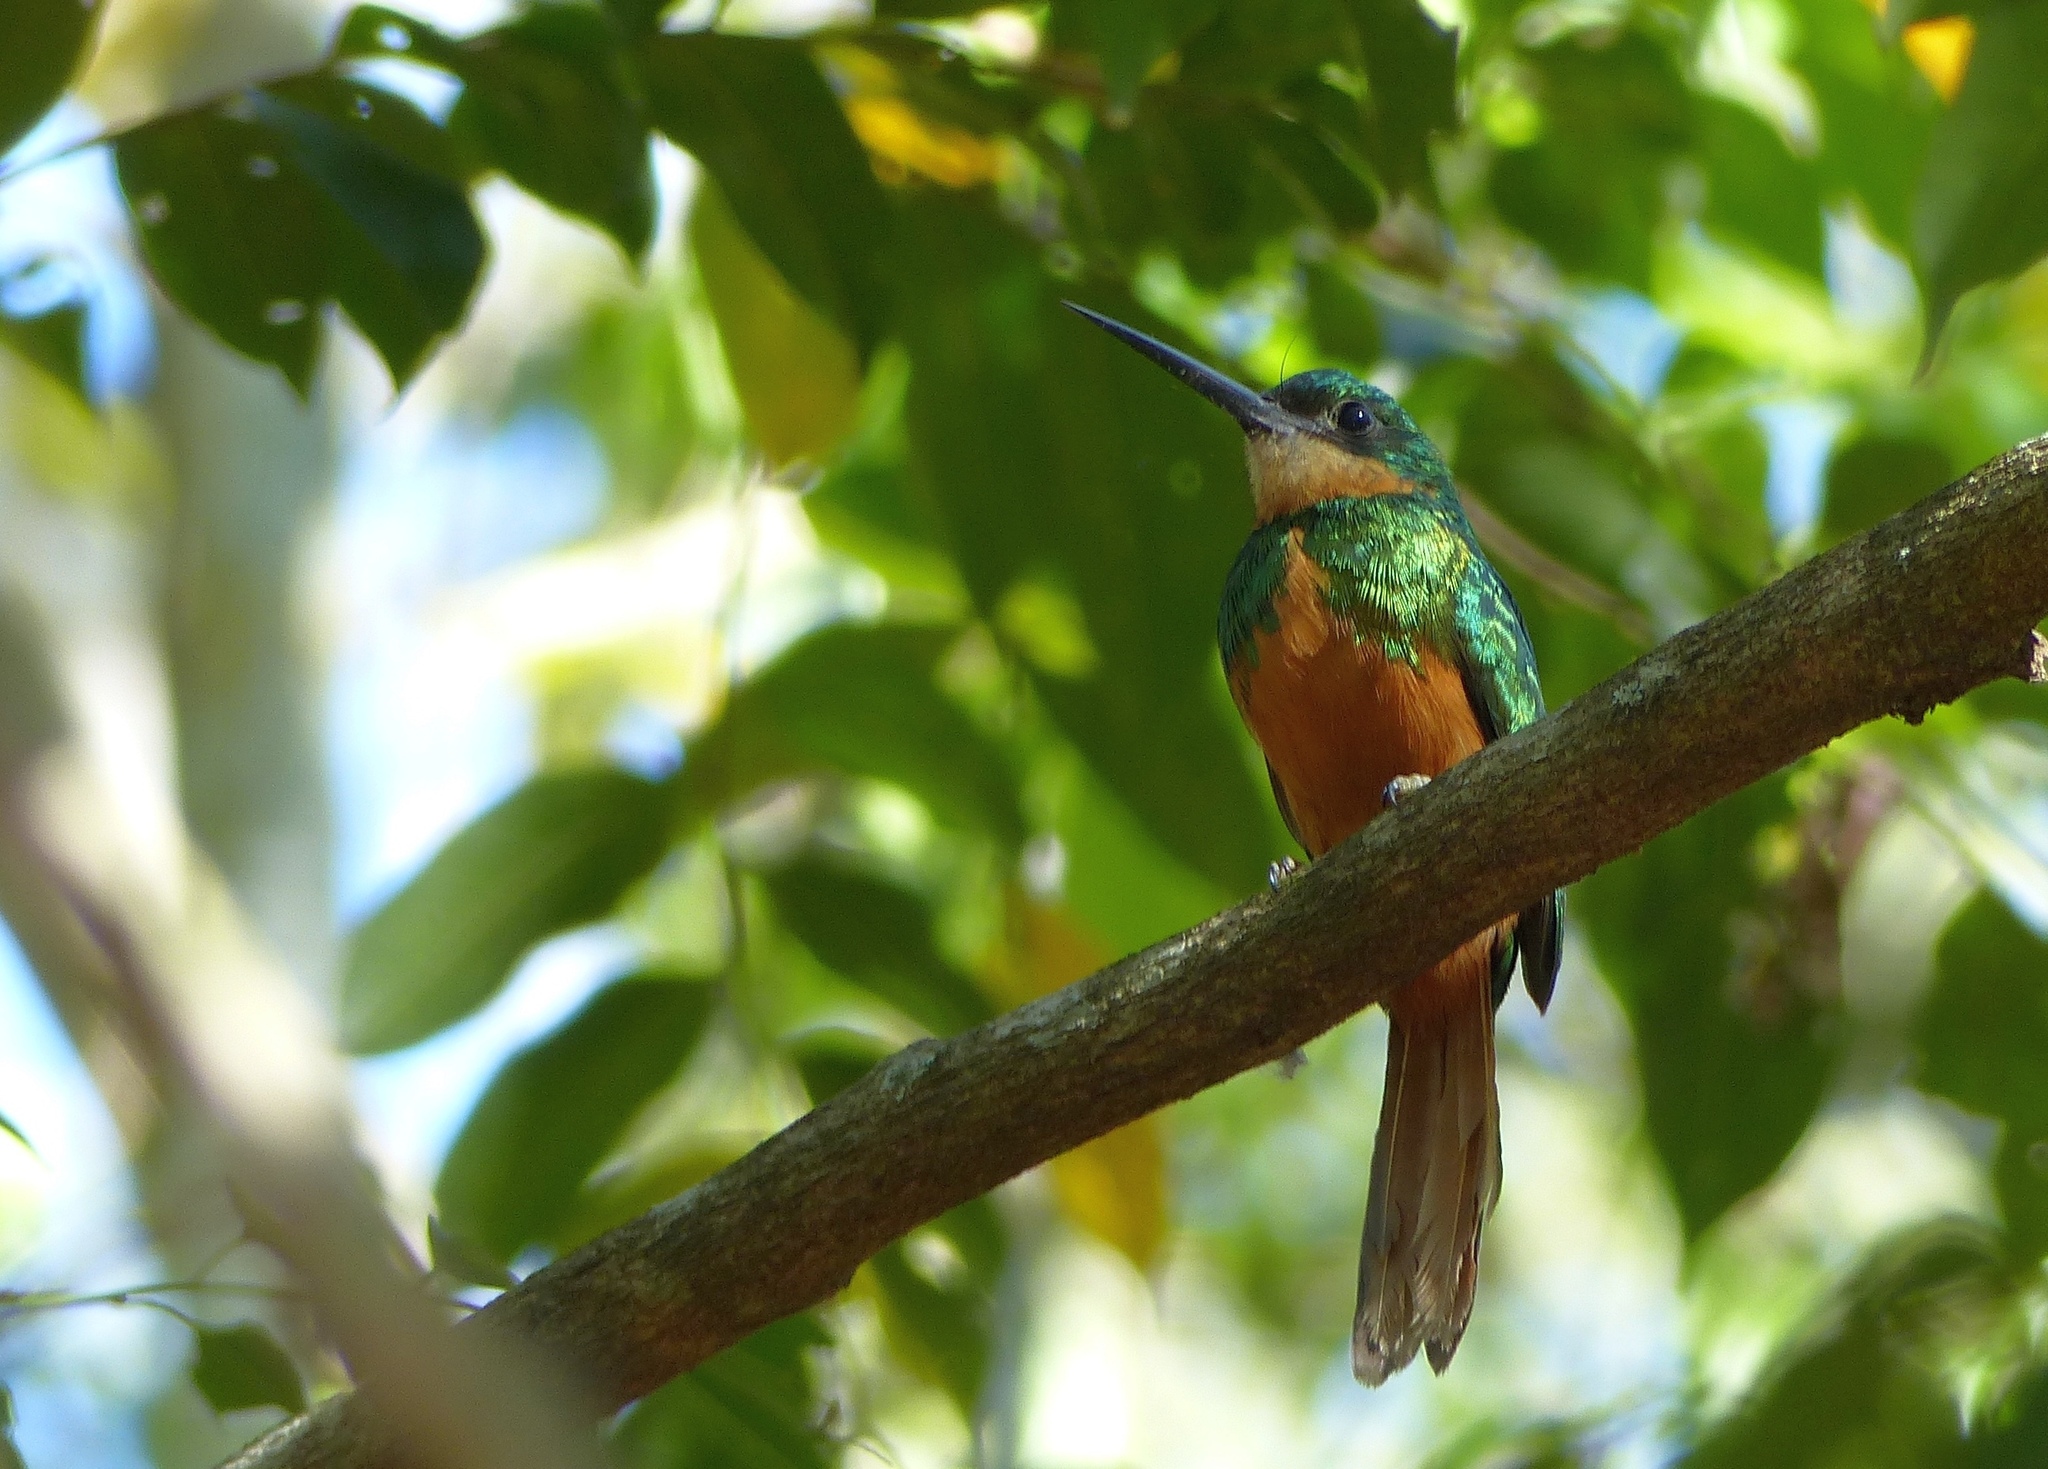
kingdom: Animalia
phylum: Chordata
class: Aves
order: Piciformes
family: Galbulidae
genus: Galbula
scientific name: Galbula ruficauda
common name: Rufous-tailed jacamar
